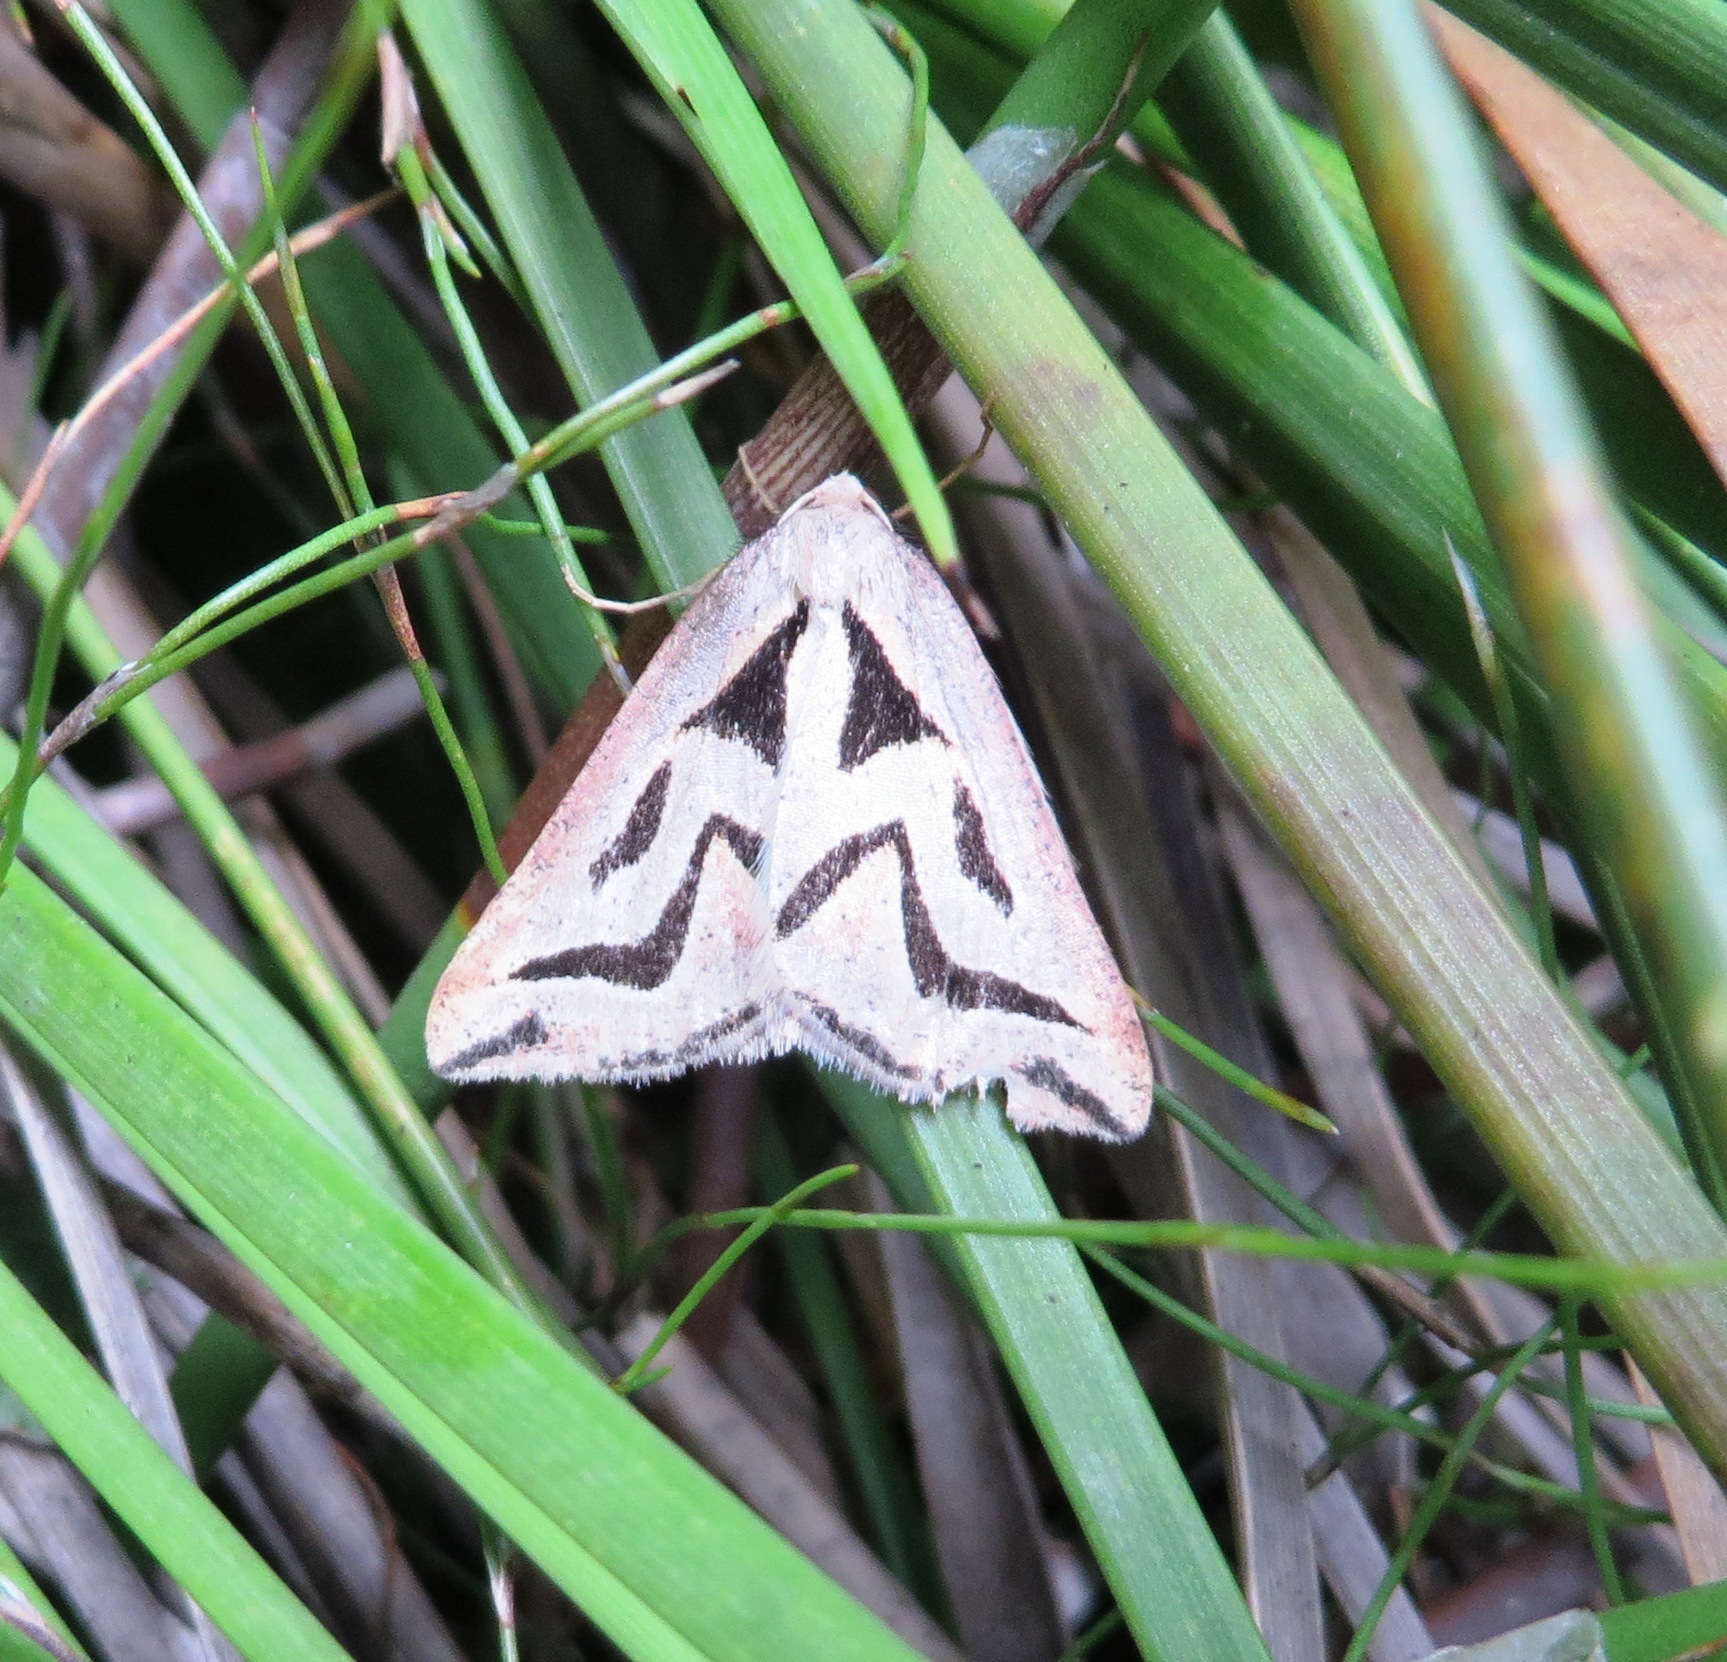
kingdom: Animalia
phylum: Arthropoda
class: Insecta
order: Lepidoptera
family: Geometridae
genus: Pseudomaenas
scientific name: Pseudomaenas krooni
